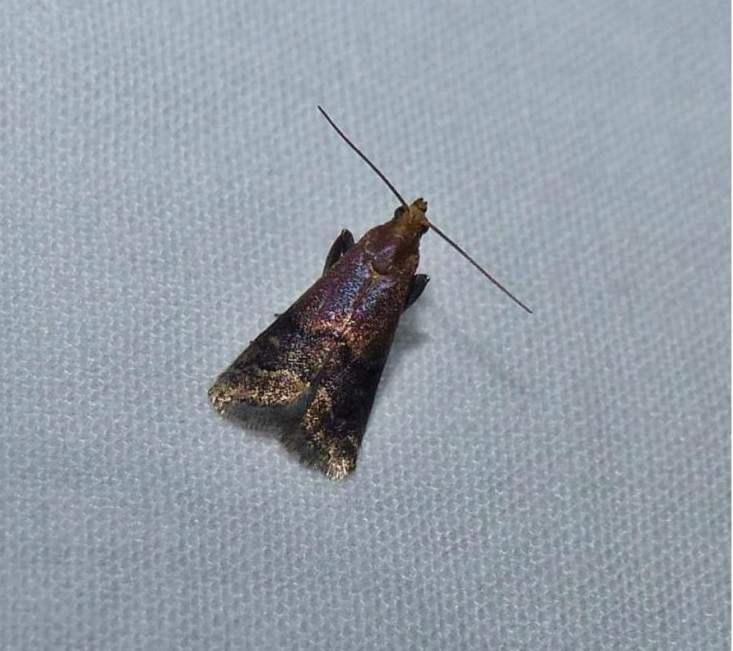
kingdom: Animalia
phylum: Arthropoda
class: Insecta
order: Lepidoptera
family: Pyralidae
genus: Eulogia
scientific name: Eulogia ochrifrontella
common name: Broad-banded eulogia moth
